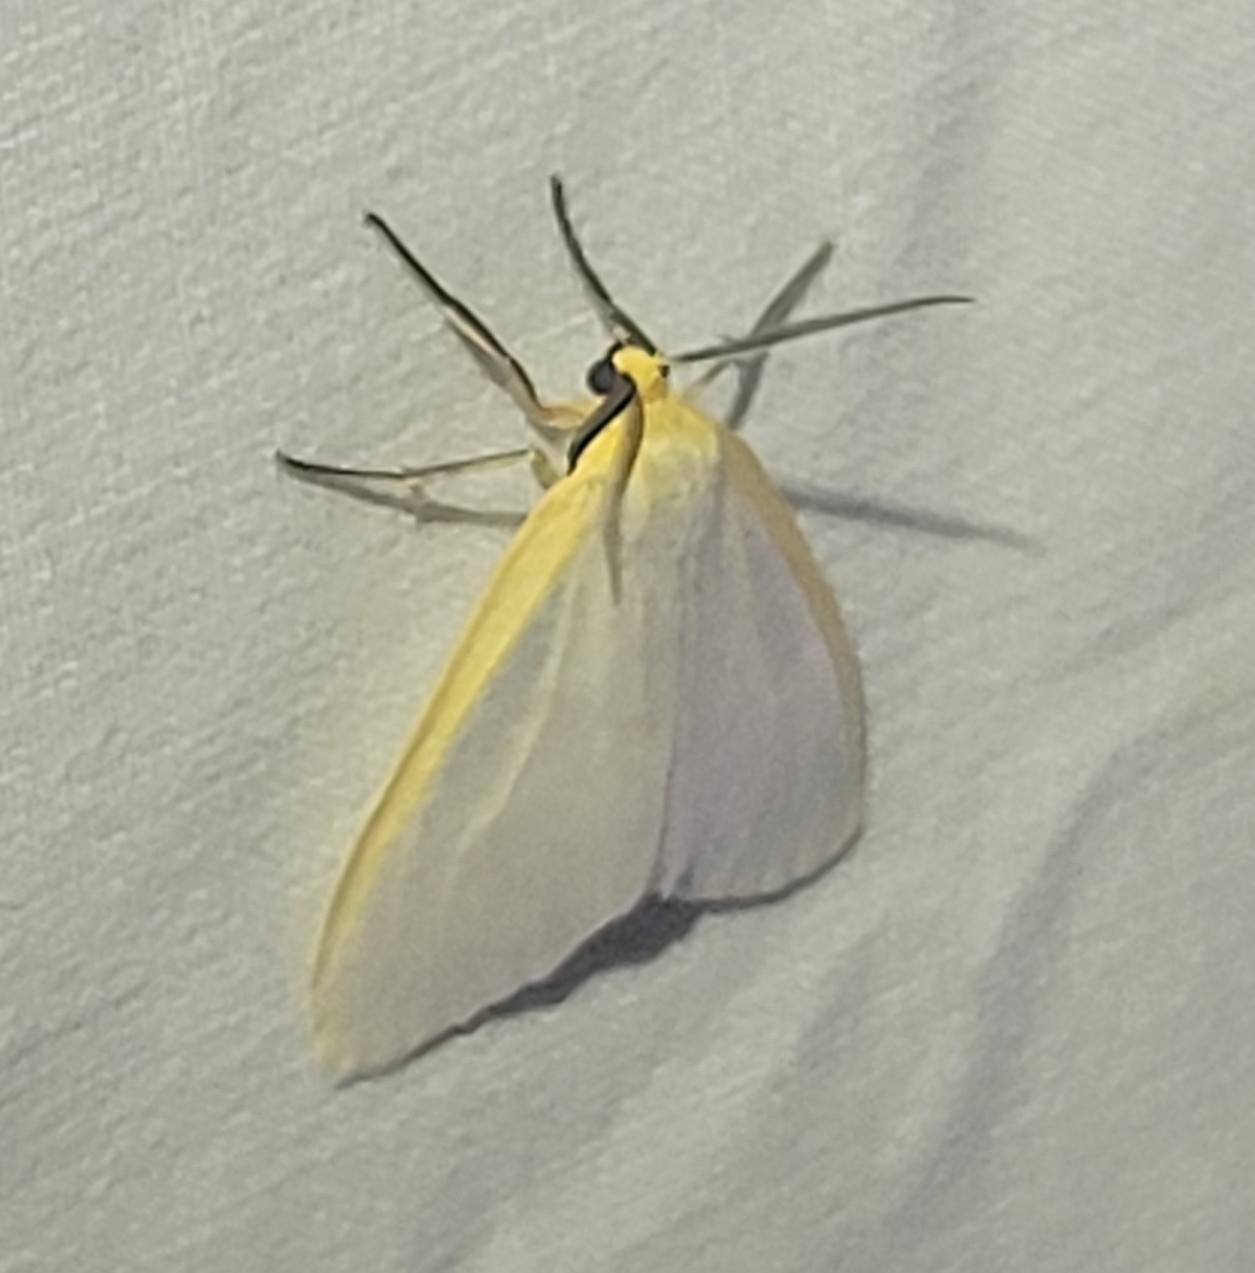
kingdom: Animalia
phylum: Arthropoda
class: Insecta
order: Lepidoptera
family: Erebidae
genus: Cycnia
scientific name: Cycnia tenera
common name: Delicate cycnia moth
